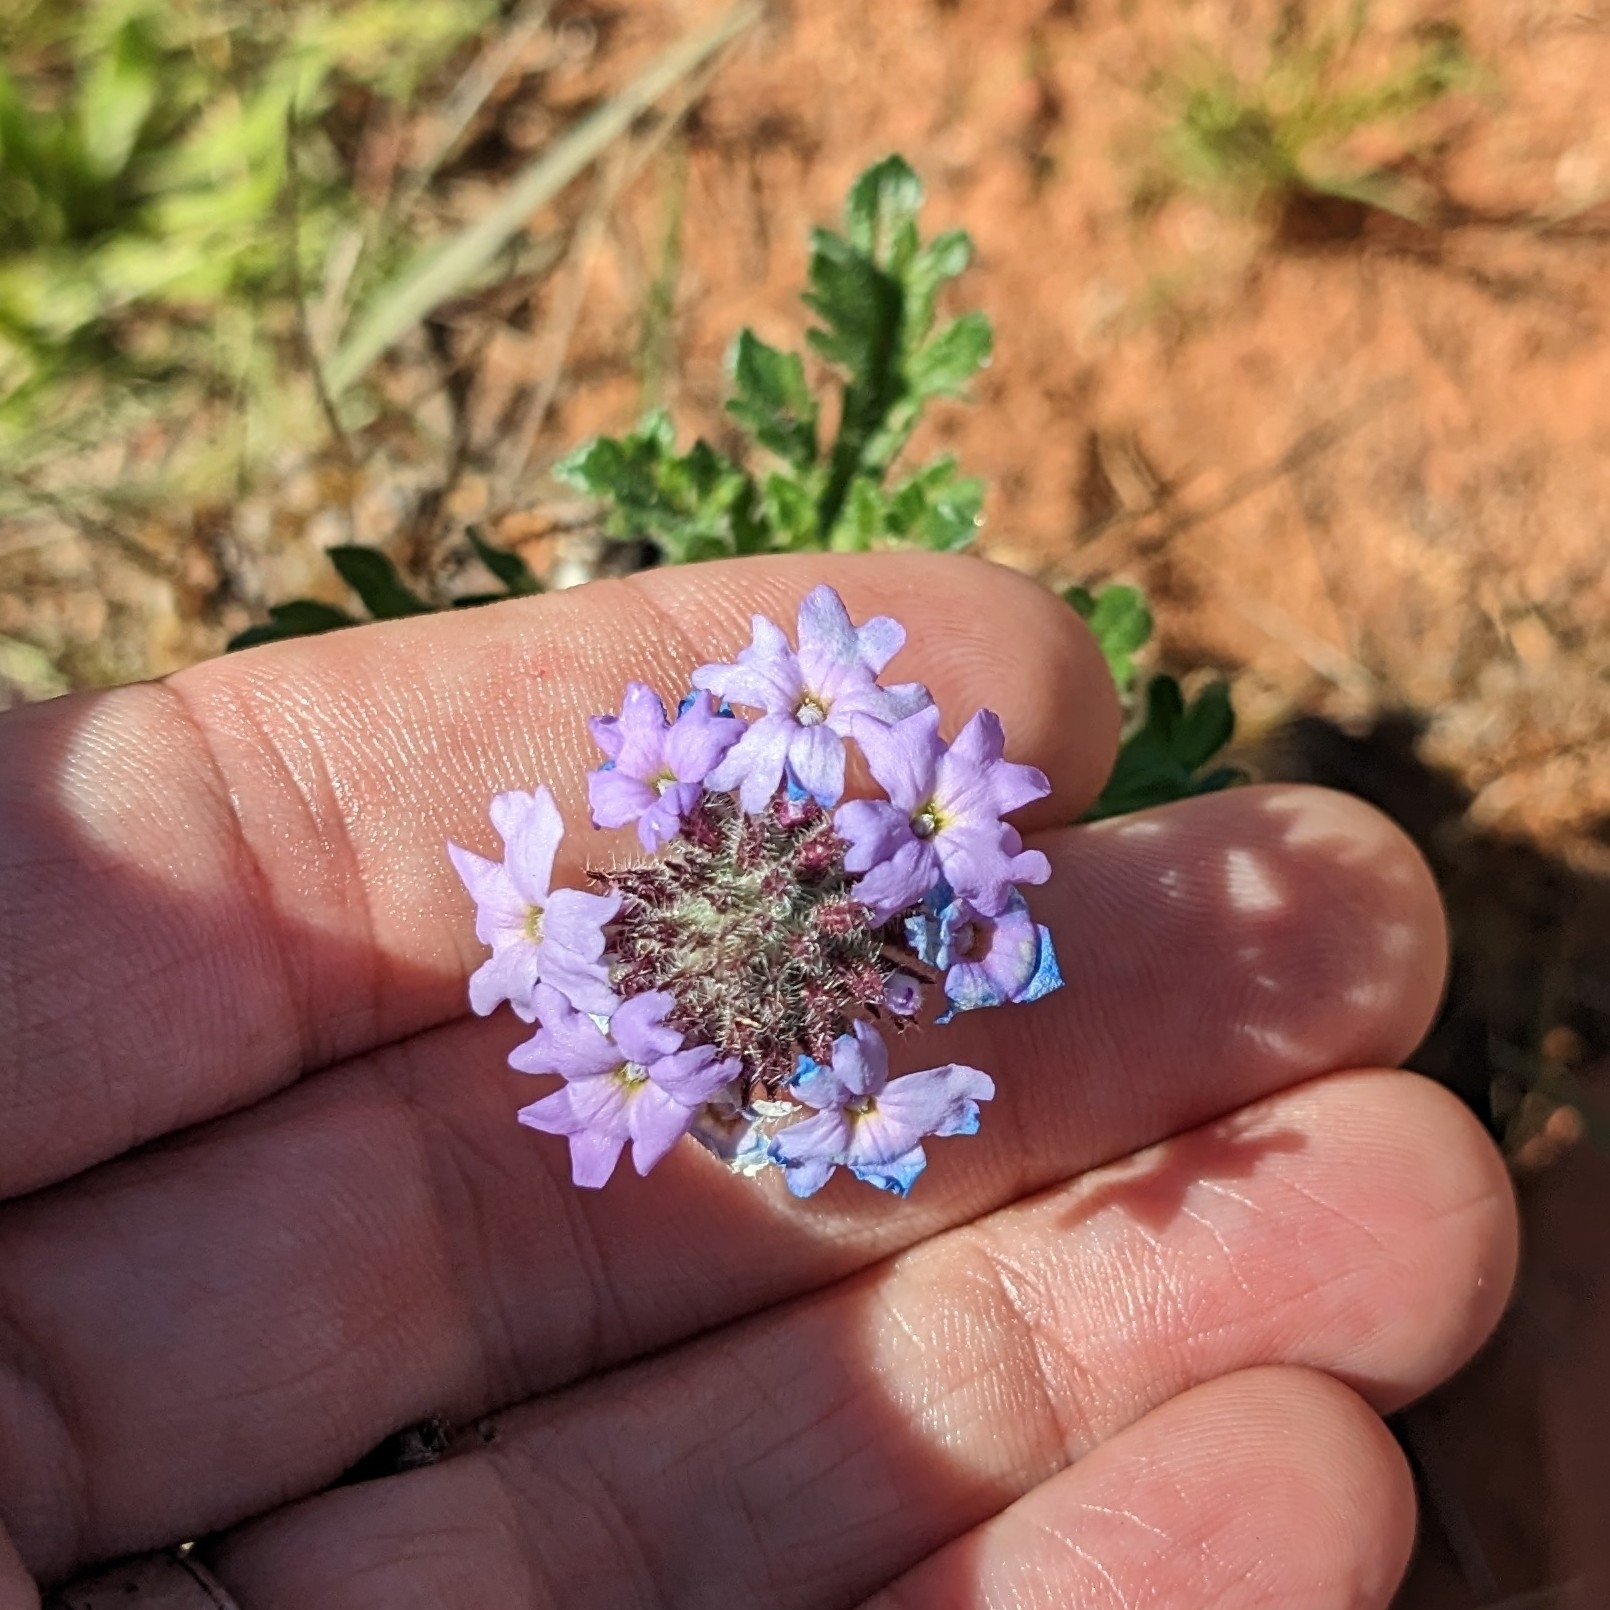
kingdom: Plantae
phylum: Tracheophyta
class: Magnoliopsida
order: Lamiales
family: Verbenaceae
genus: Verbena
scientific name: Verbena gooddingii
